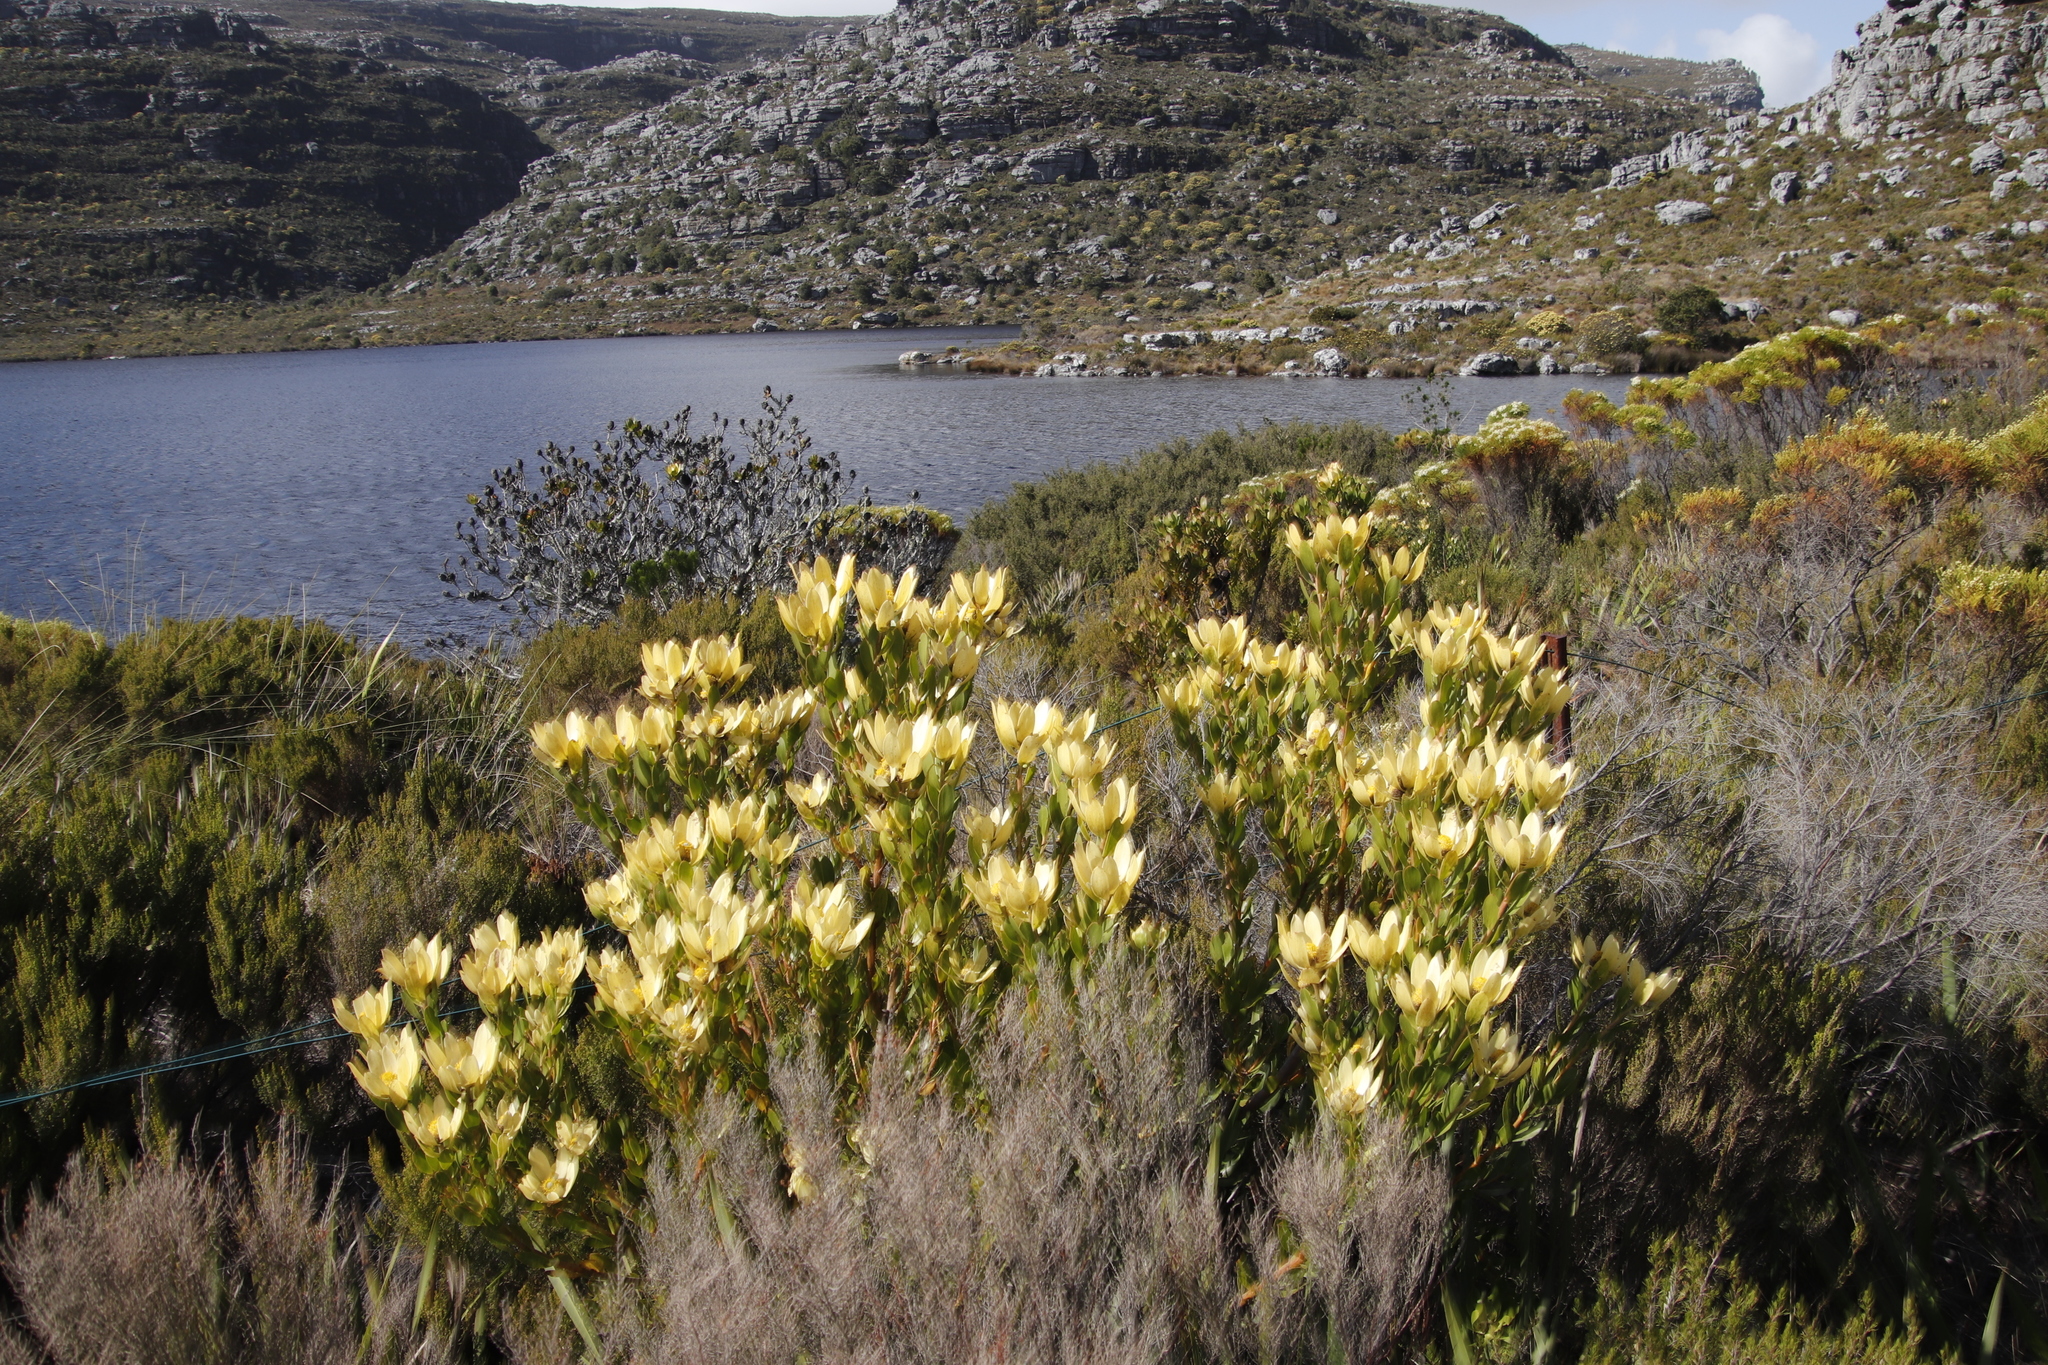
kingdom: Plantae
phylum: Tracheophyta
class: Magnoliopsida
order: Proteales
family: Proteaceae
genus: Leucadendron
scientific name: Leucadendron strobilinum
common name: Mountain rose
